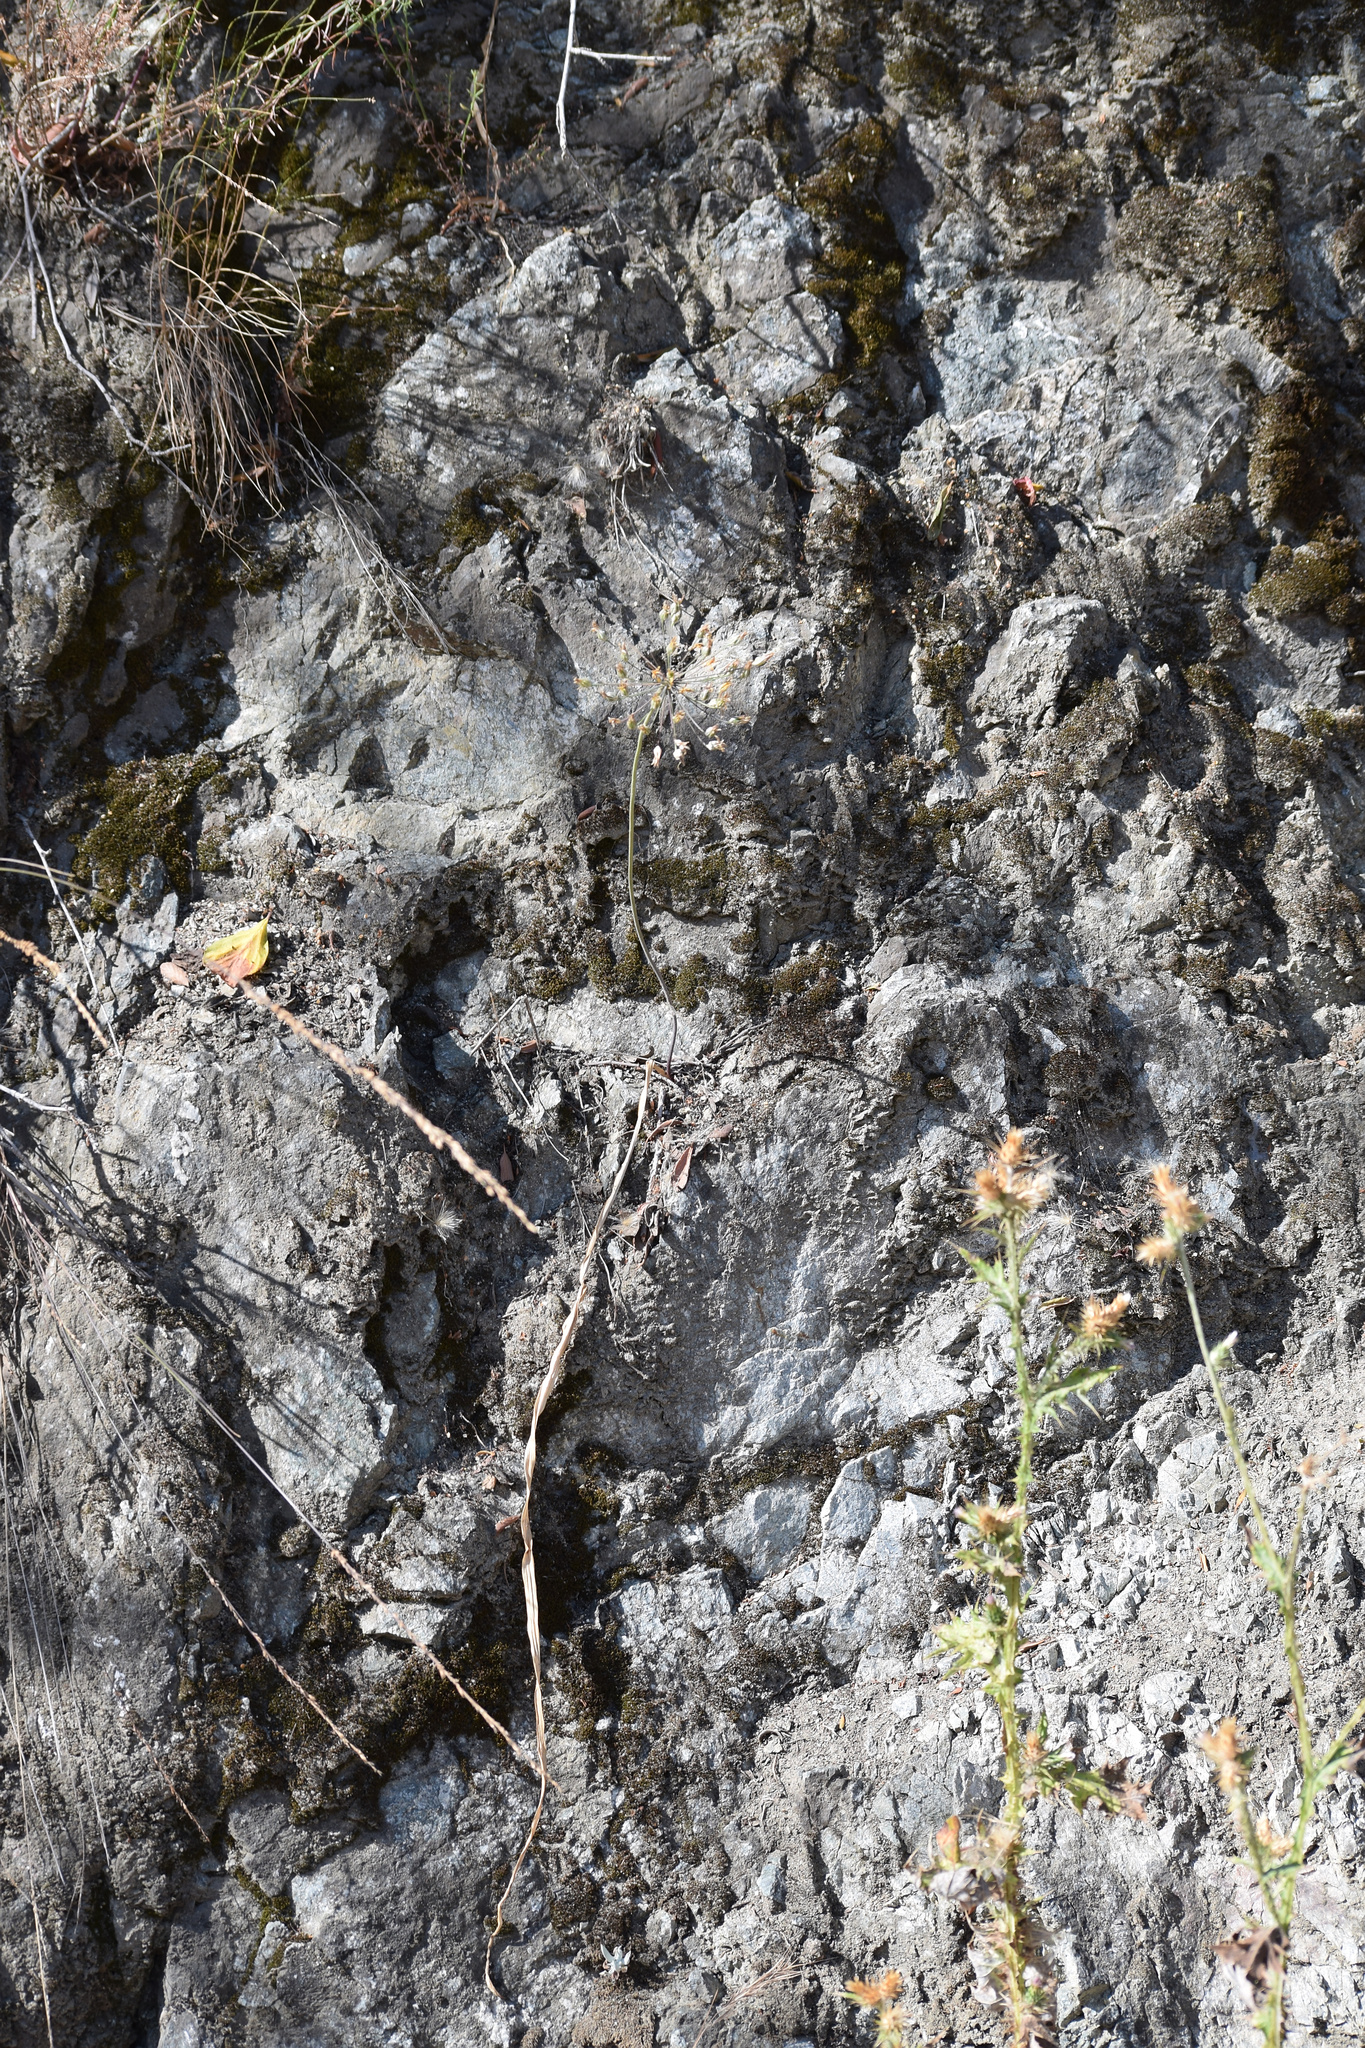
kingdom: Plantae
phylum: Tracheophyta
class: Liliopsida
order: Asparagales
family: Asparagaceae
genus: Bloomeria
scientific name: Bloomeria crocea
